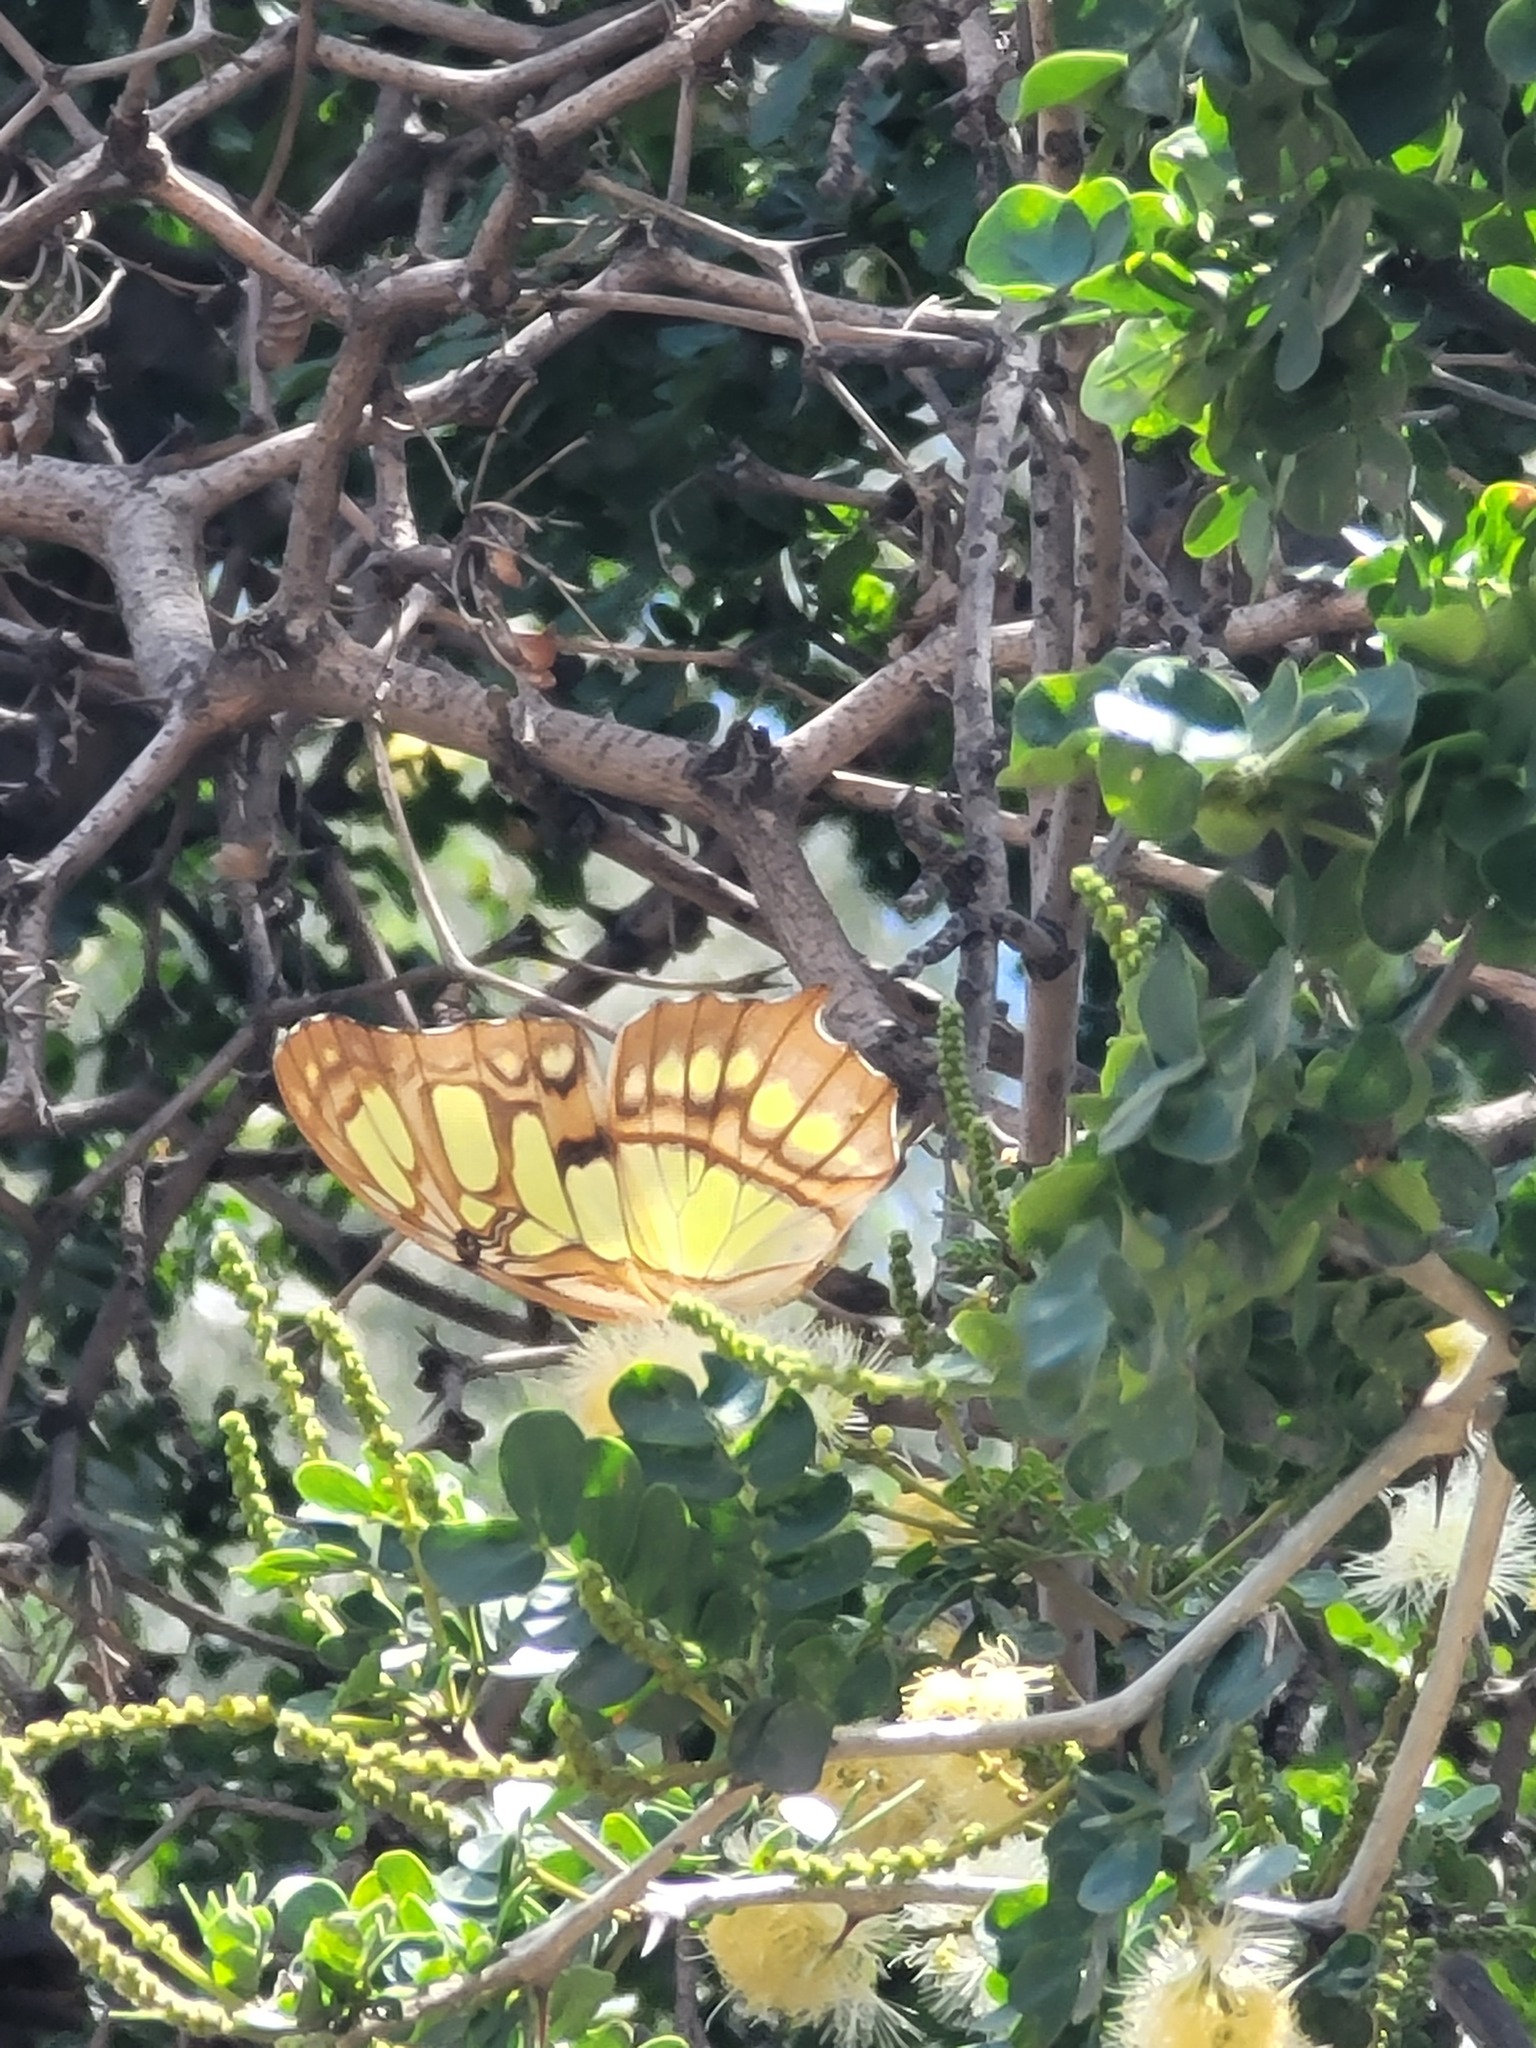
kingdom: Animalia
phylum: Arthropoda
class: Insecta
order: Lepidoptera
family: Nymphalidae
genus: Siproeta
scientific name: Siproeta stelenes
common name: Malachite
